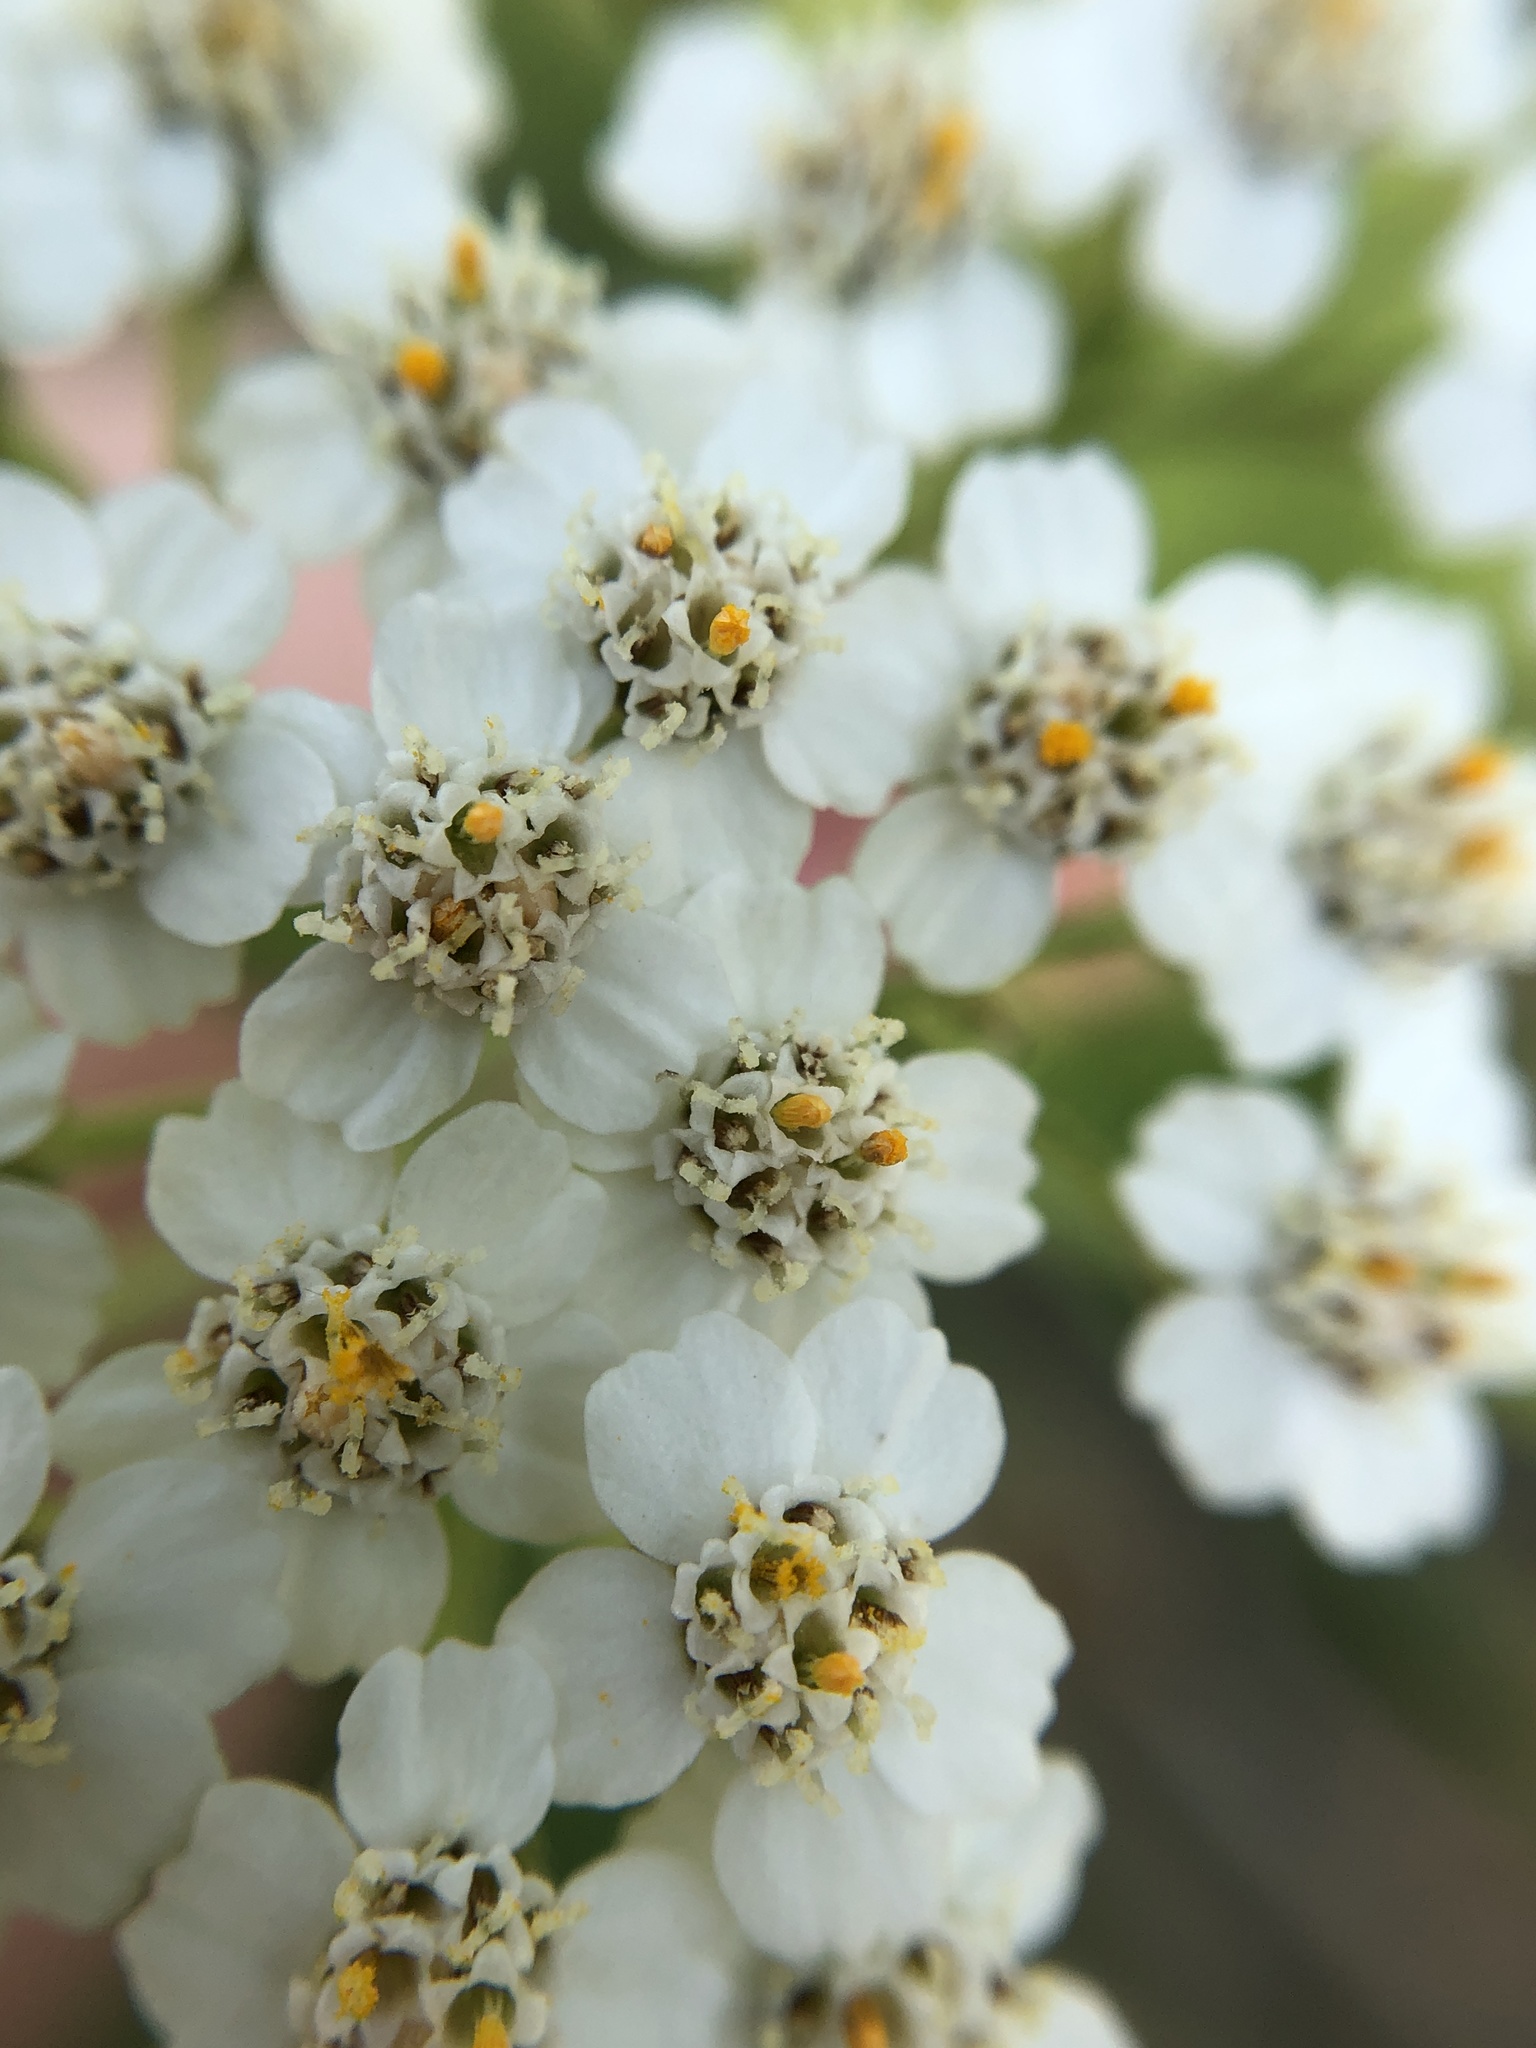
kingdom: Plantae
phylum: Tracheophyta
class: Magnoliopsida
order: Asterales
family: Asteraceae
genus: Achillea
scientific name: Achillea millefolium
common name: Yarrow
